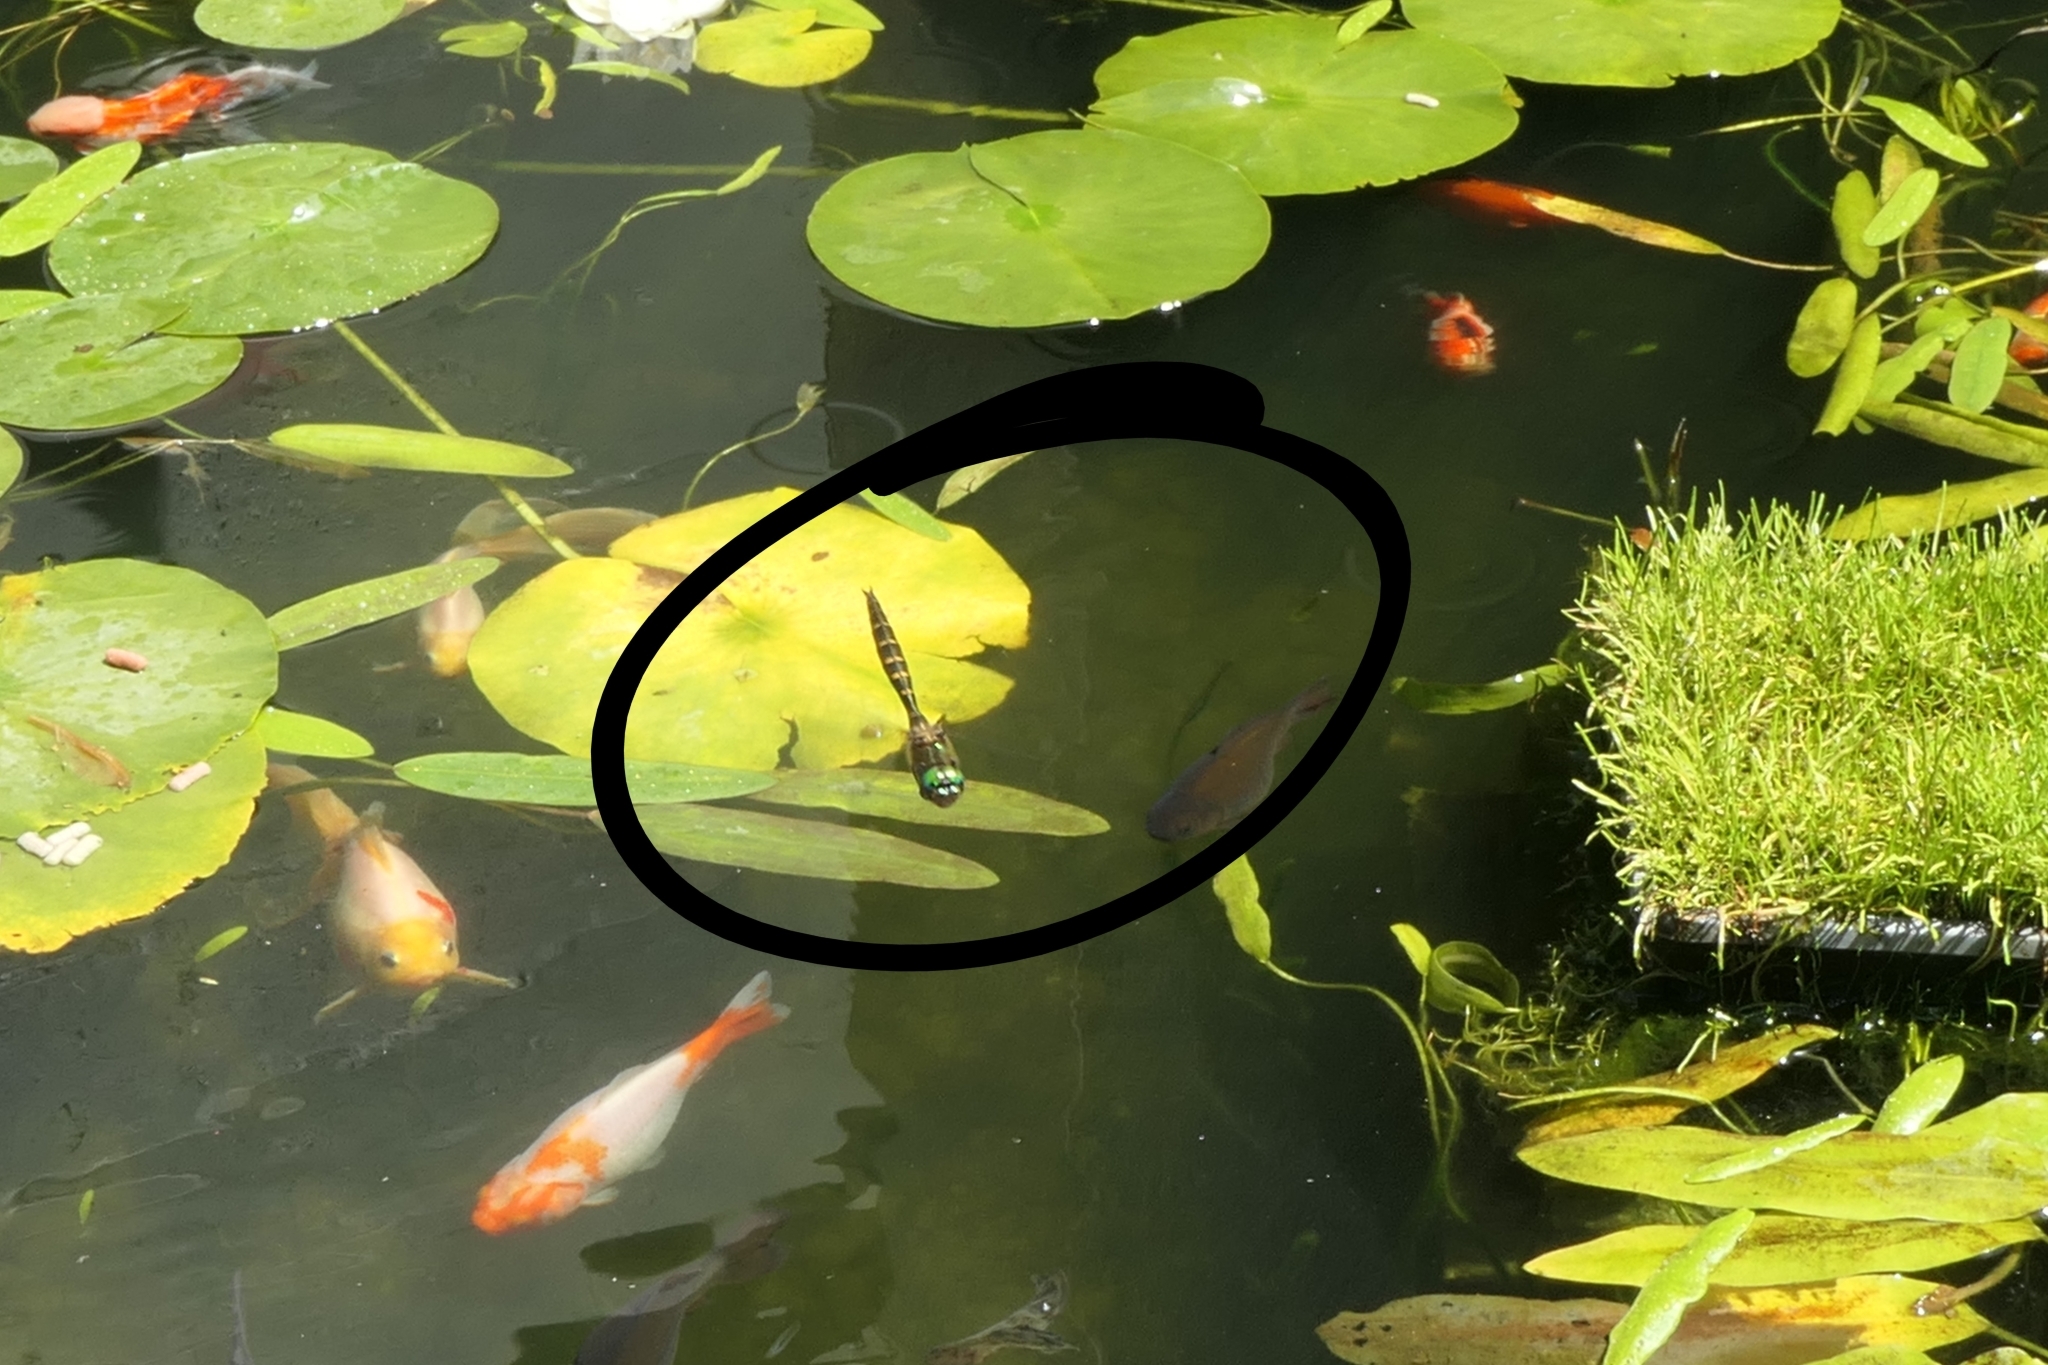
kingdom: Animalia
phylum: Arthropoda
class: Insecta
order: Odonata
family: Corduliidae
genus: Procordulia
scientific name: Procordulia smithii
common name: Ranger dragonfly
